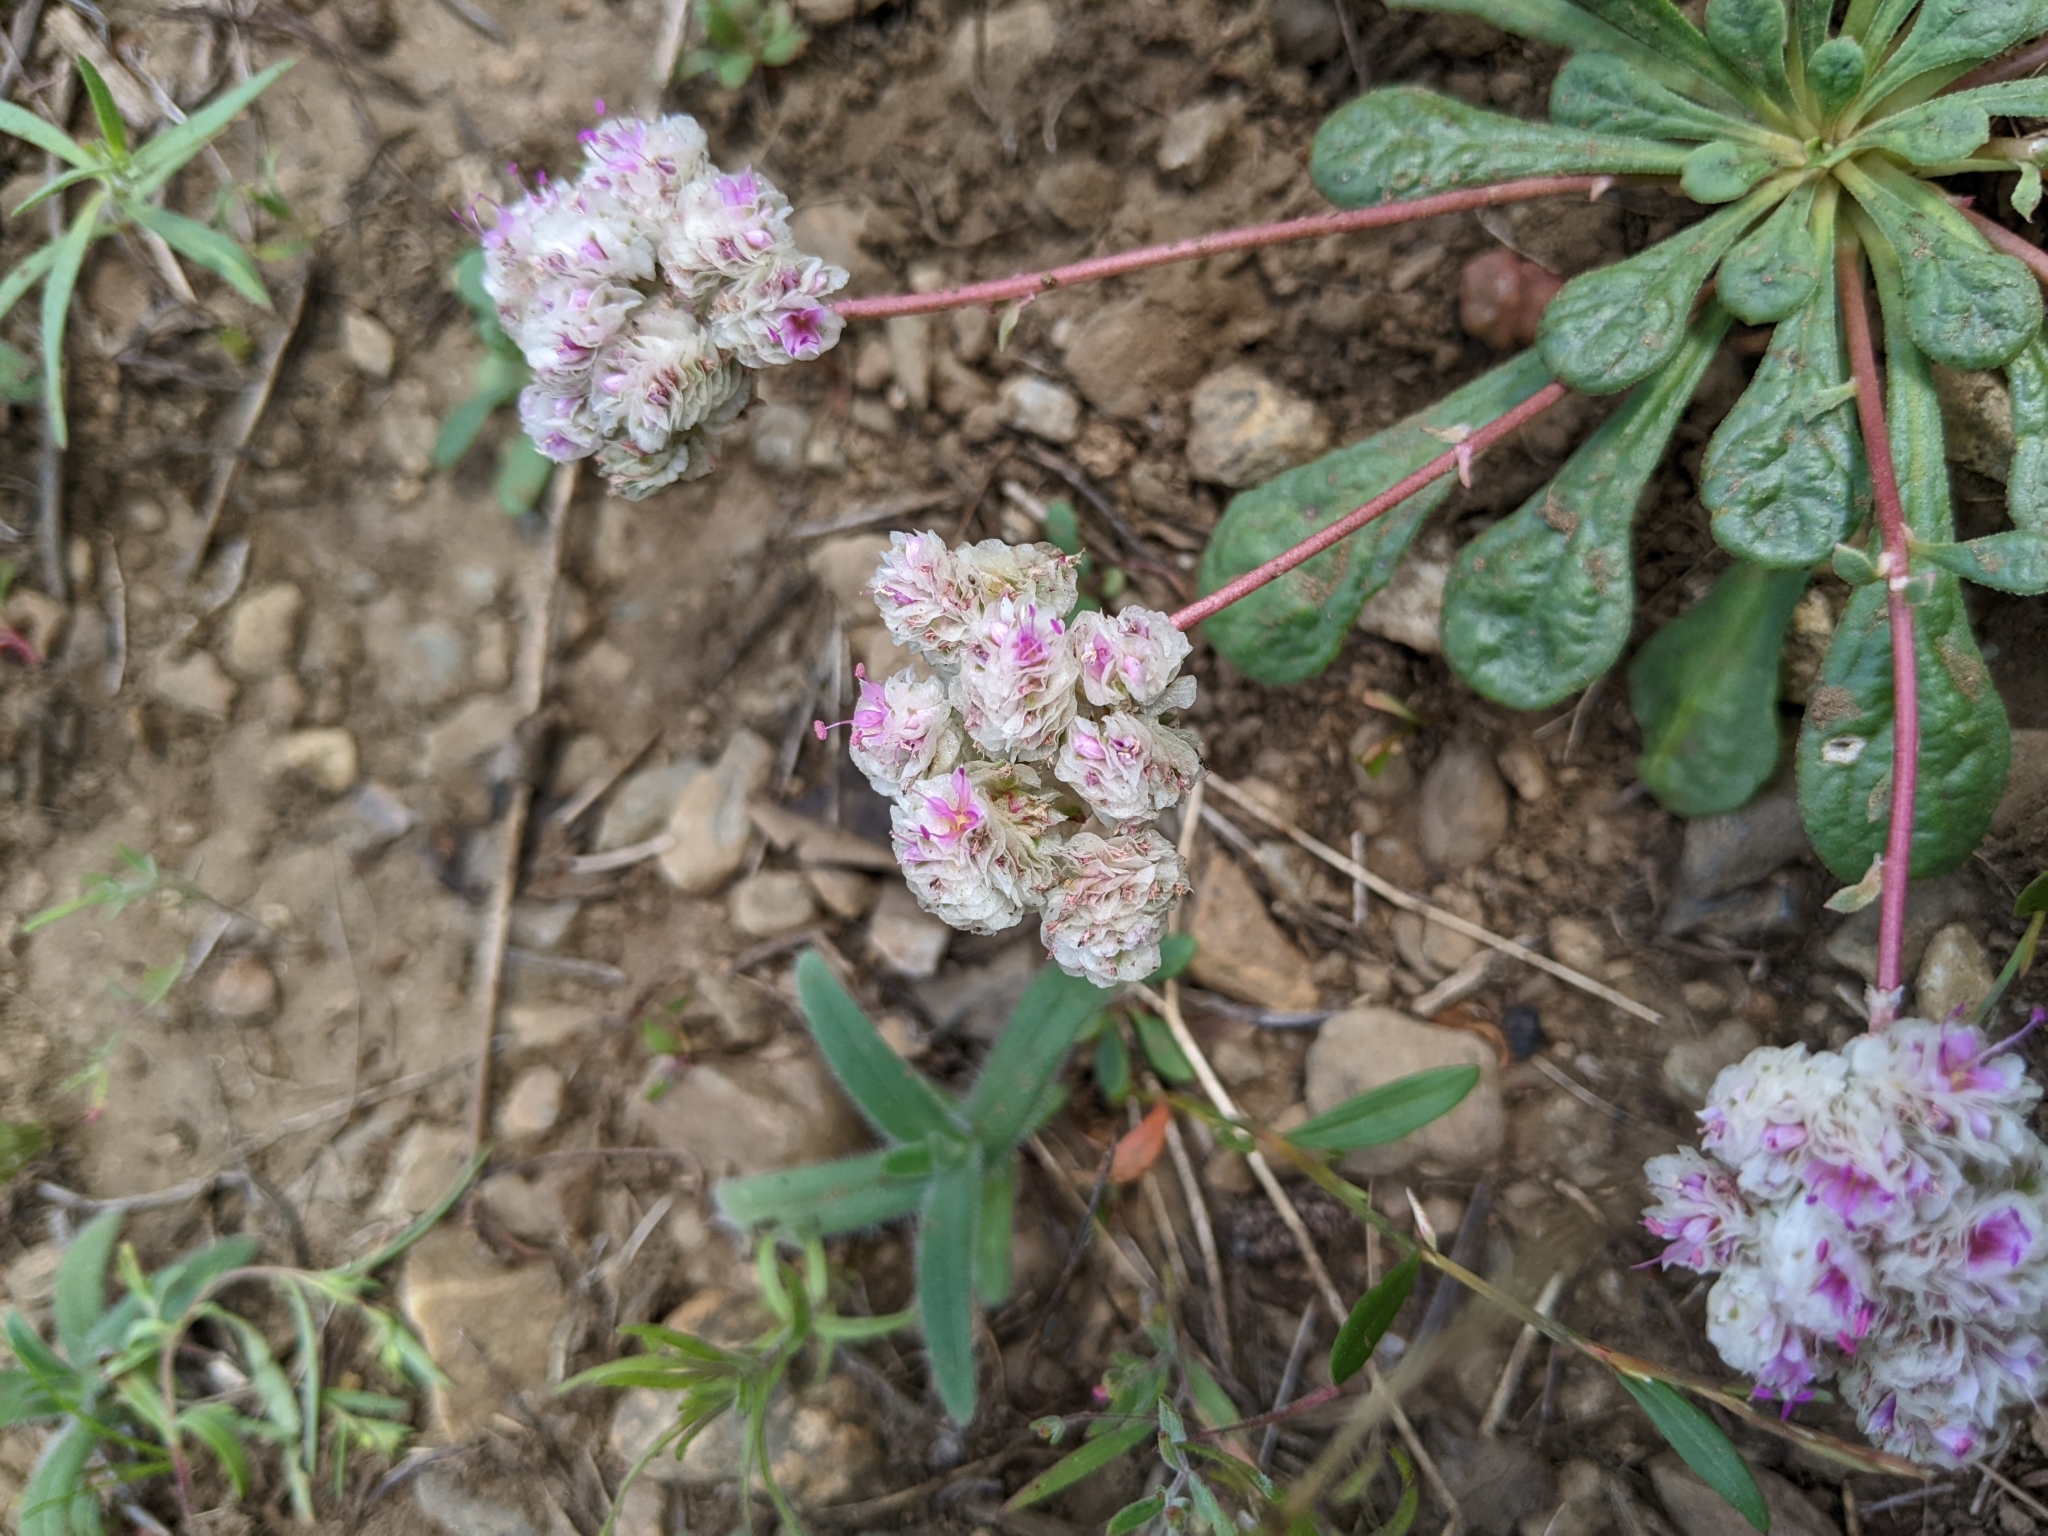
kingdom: Plantae
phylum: Tracheophyta
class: Magnoliopsida
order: Caryophyllales
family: Montiaceae
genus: Calyptridium
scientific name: Calyptridium monospermum
